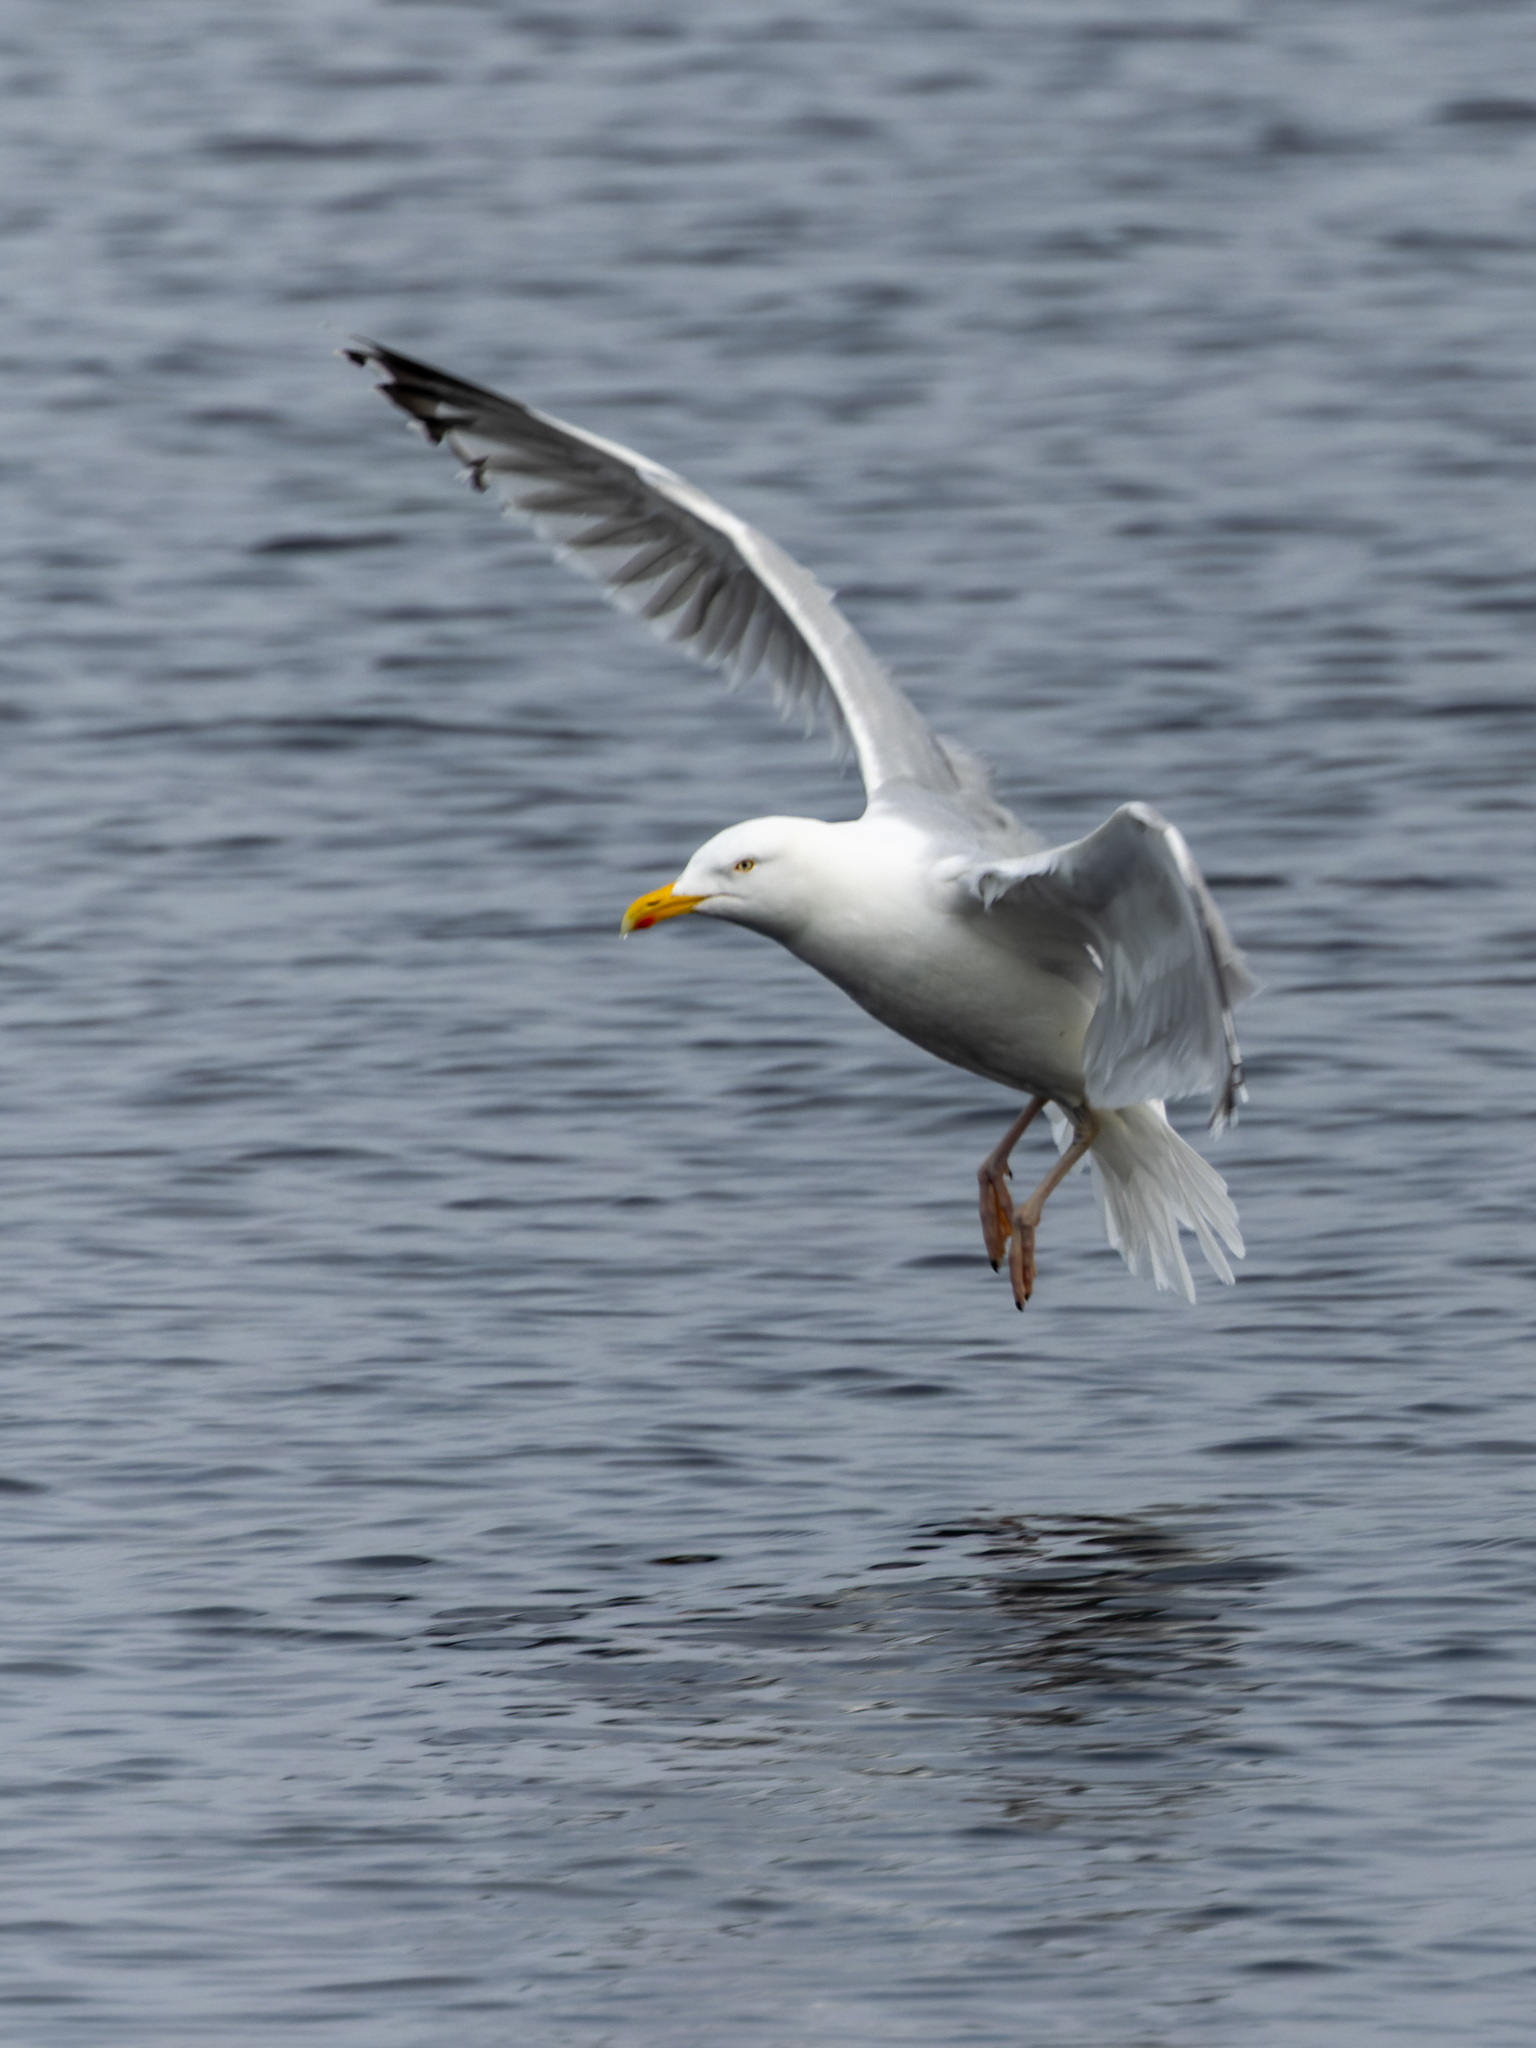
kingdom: Animalia
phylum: Chordata
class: Aves
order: Charadriiformes
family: Laridae
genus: Larus
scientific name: Larus argentatus
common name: Herring gull
